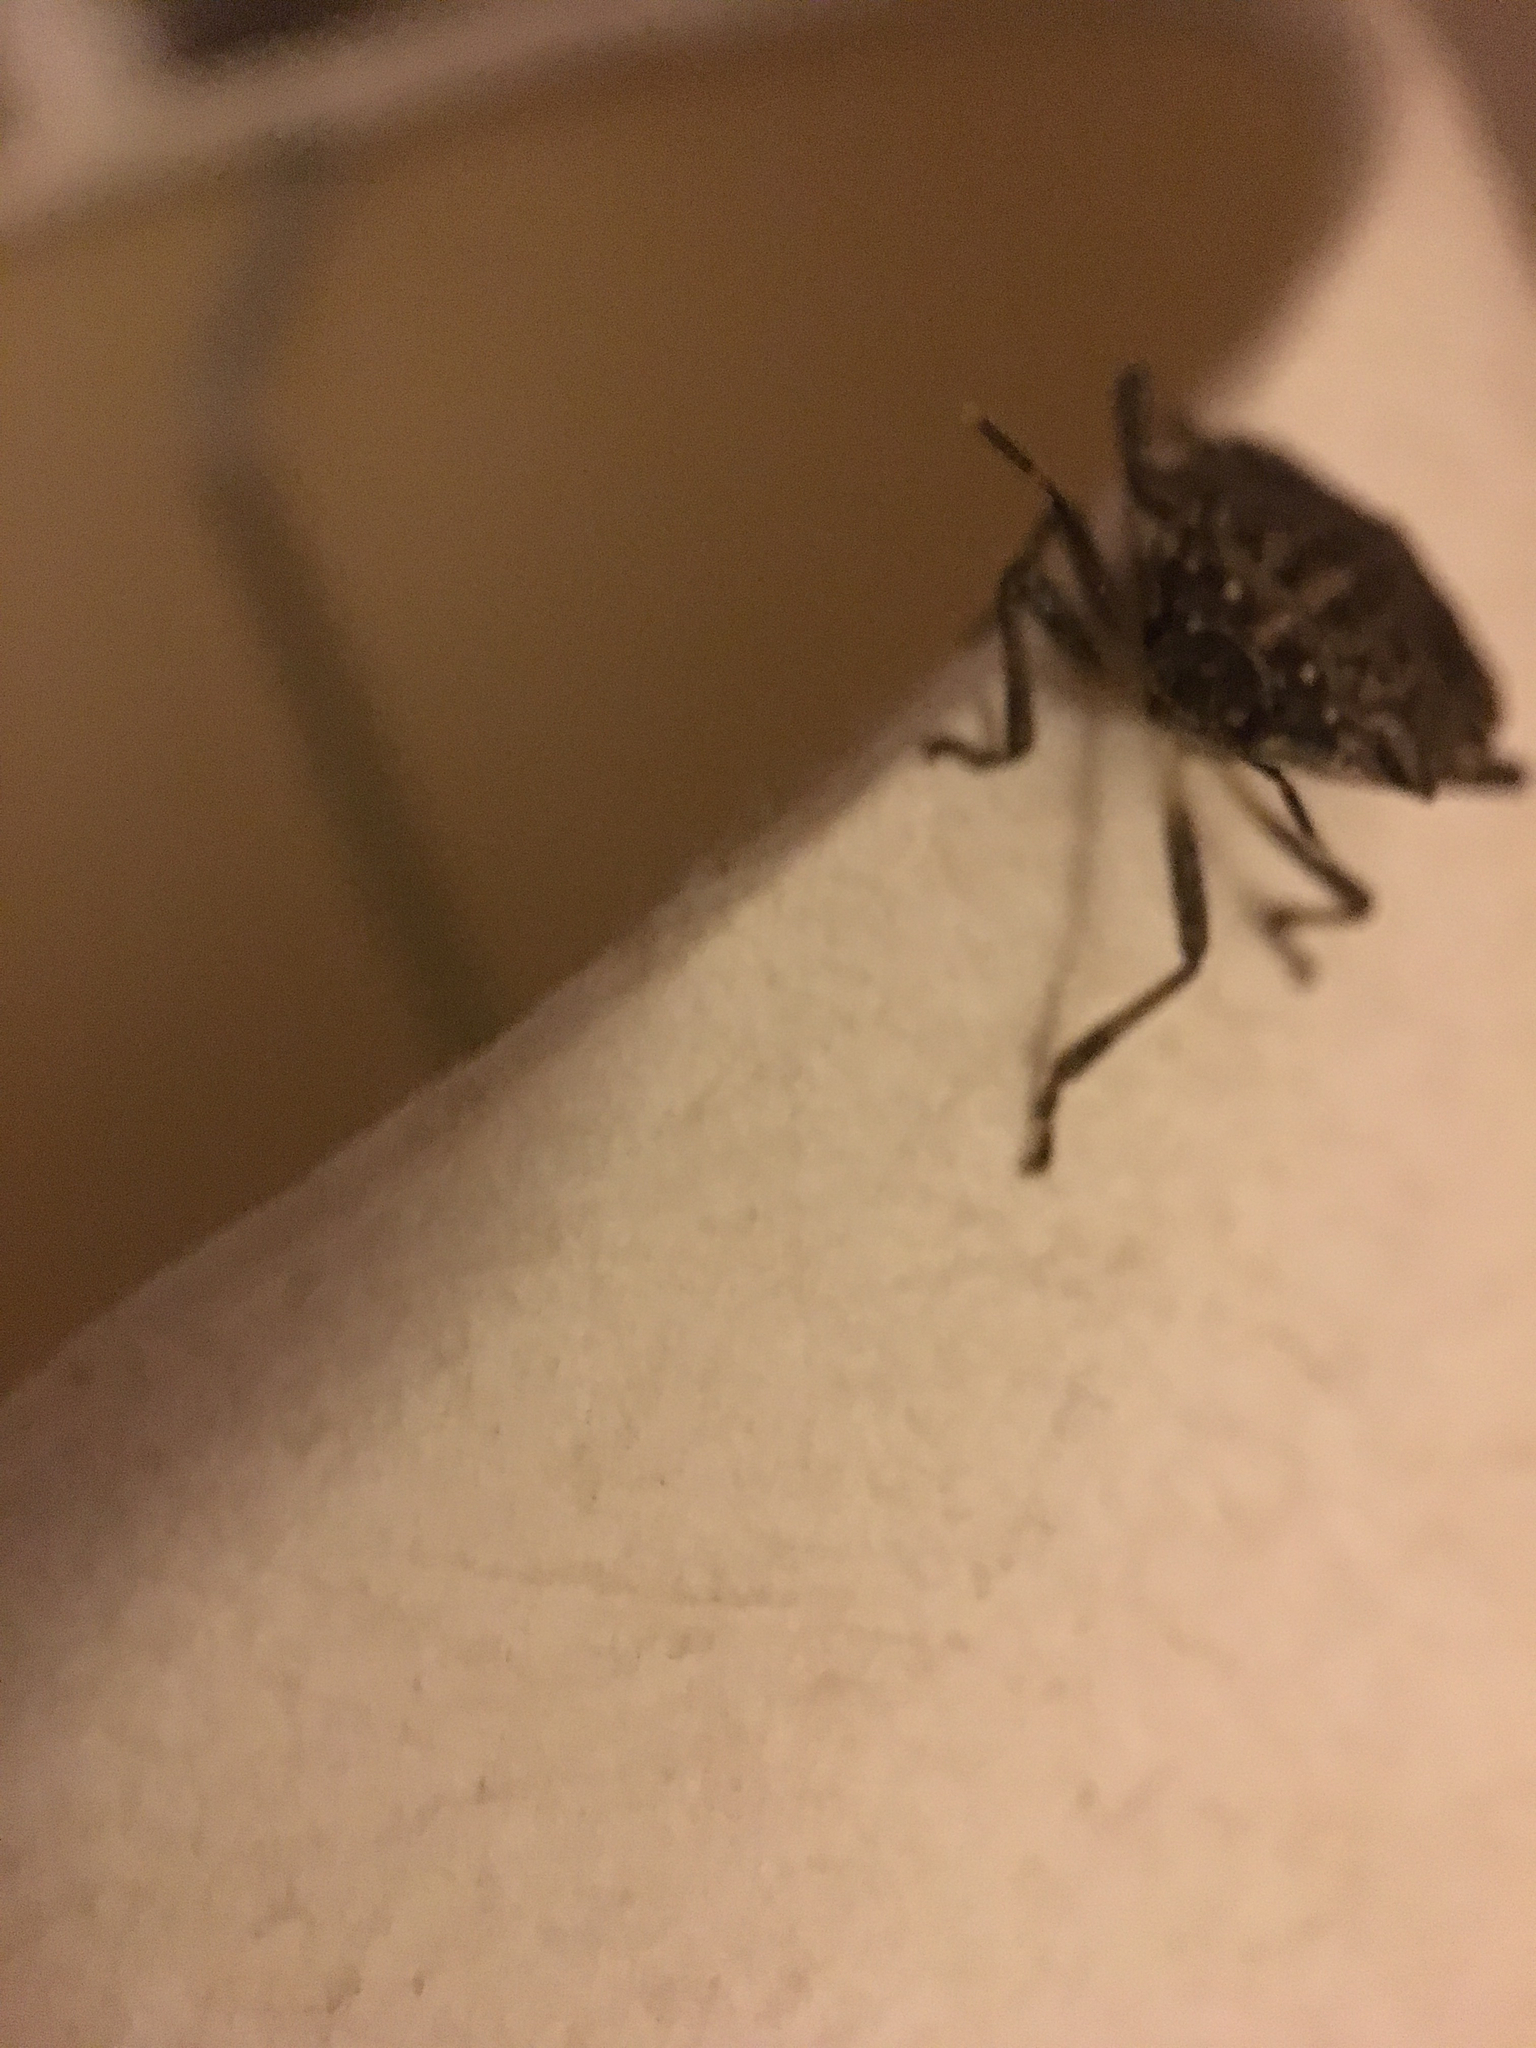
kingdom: Animalia
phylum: Arthropoda
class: Insecta
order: Hemiptera
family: Pentatomidae
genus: Halyomorpha
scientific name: Halyomorpha halys
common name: Brown marmorated stink bug
